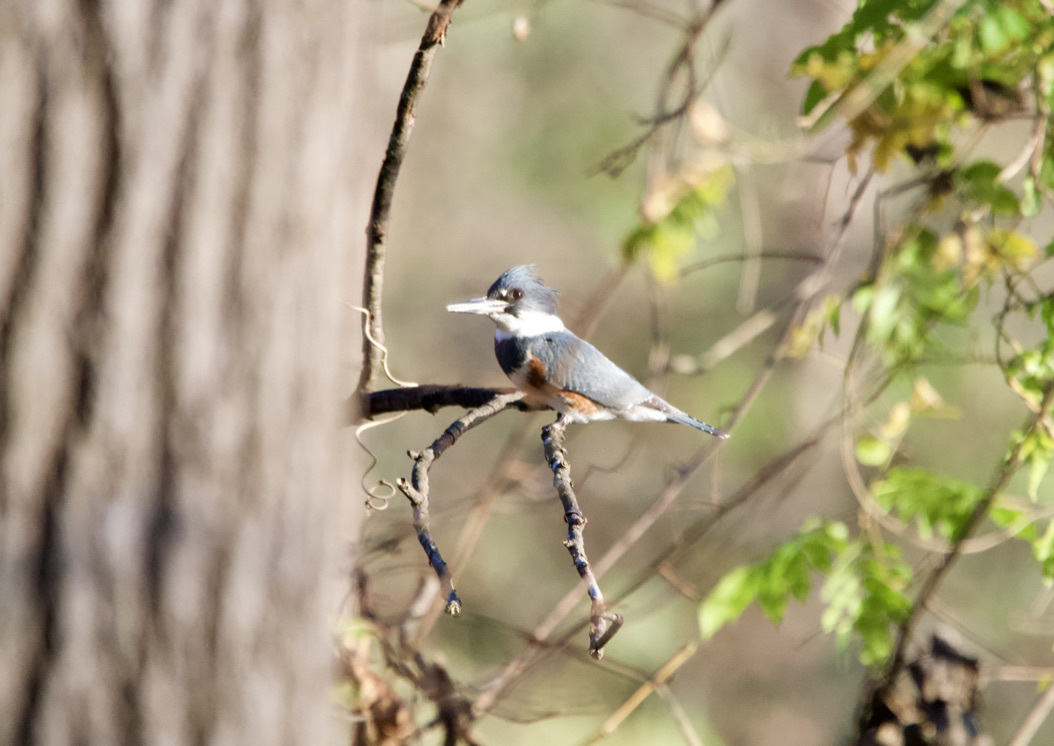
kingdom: Animalia
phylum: Chordata
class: Aves
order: Coraciiformes
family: Alcedinidae
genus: Megaceryle
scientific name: Megaceryle alcyon
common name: Belted kingfisher
